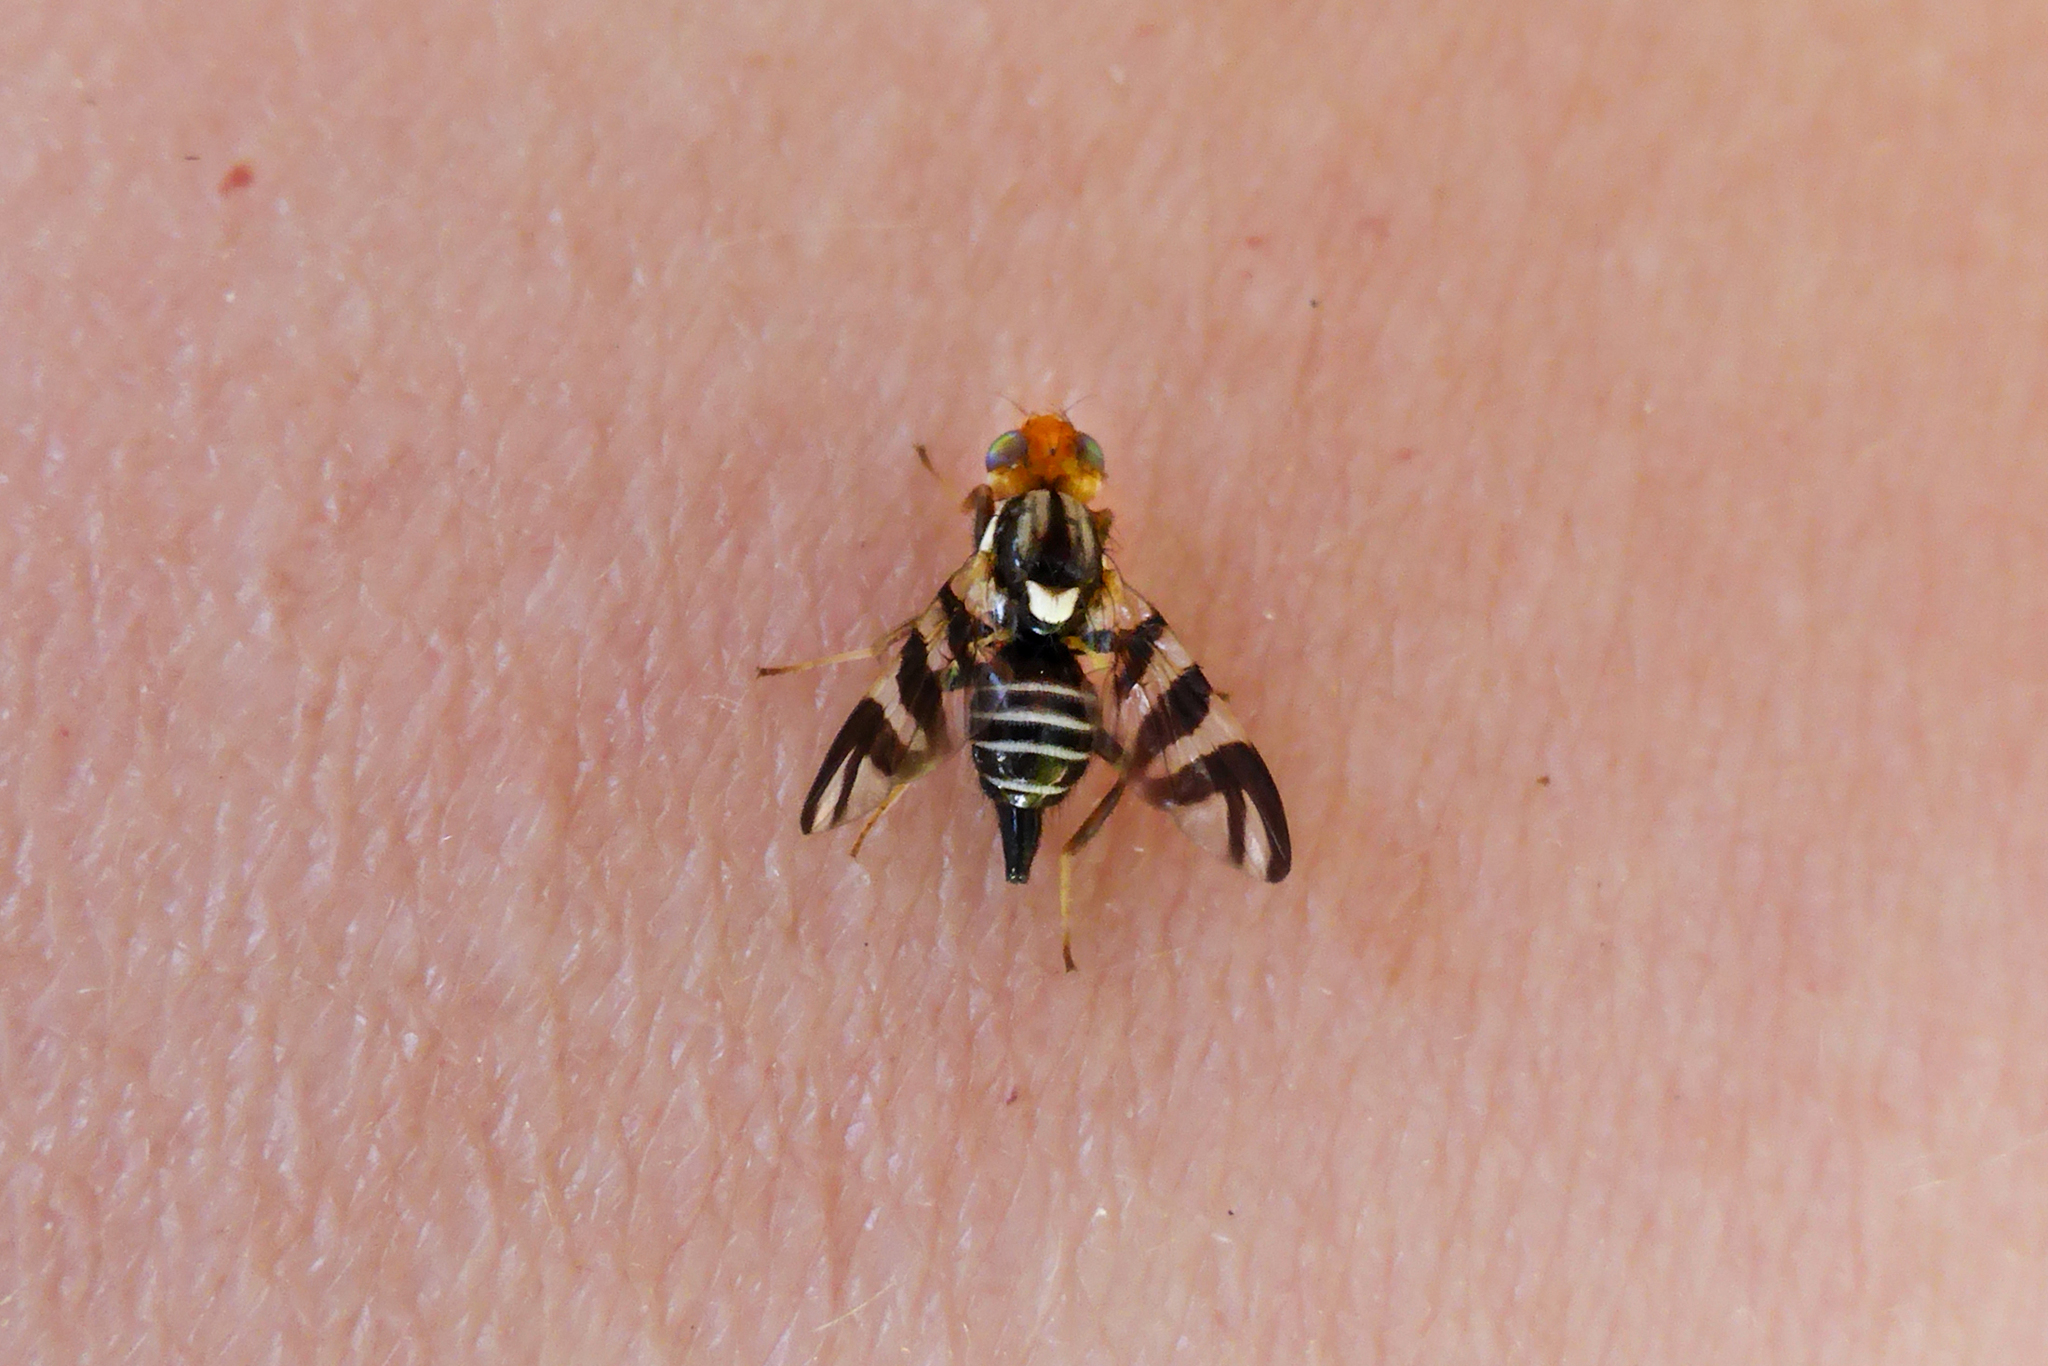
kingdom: Animalia
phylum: Arthropoda
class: Insecta
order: Diptera
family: Tephritidae
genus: Rhagoletis
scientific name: Rhagoletis striatella
